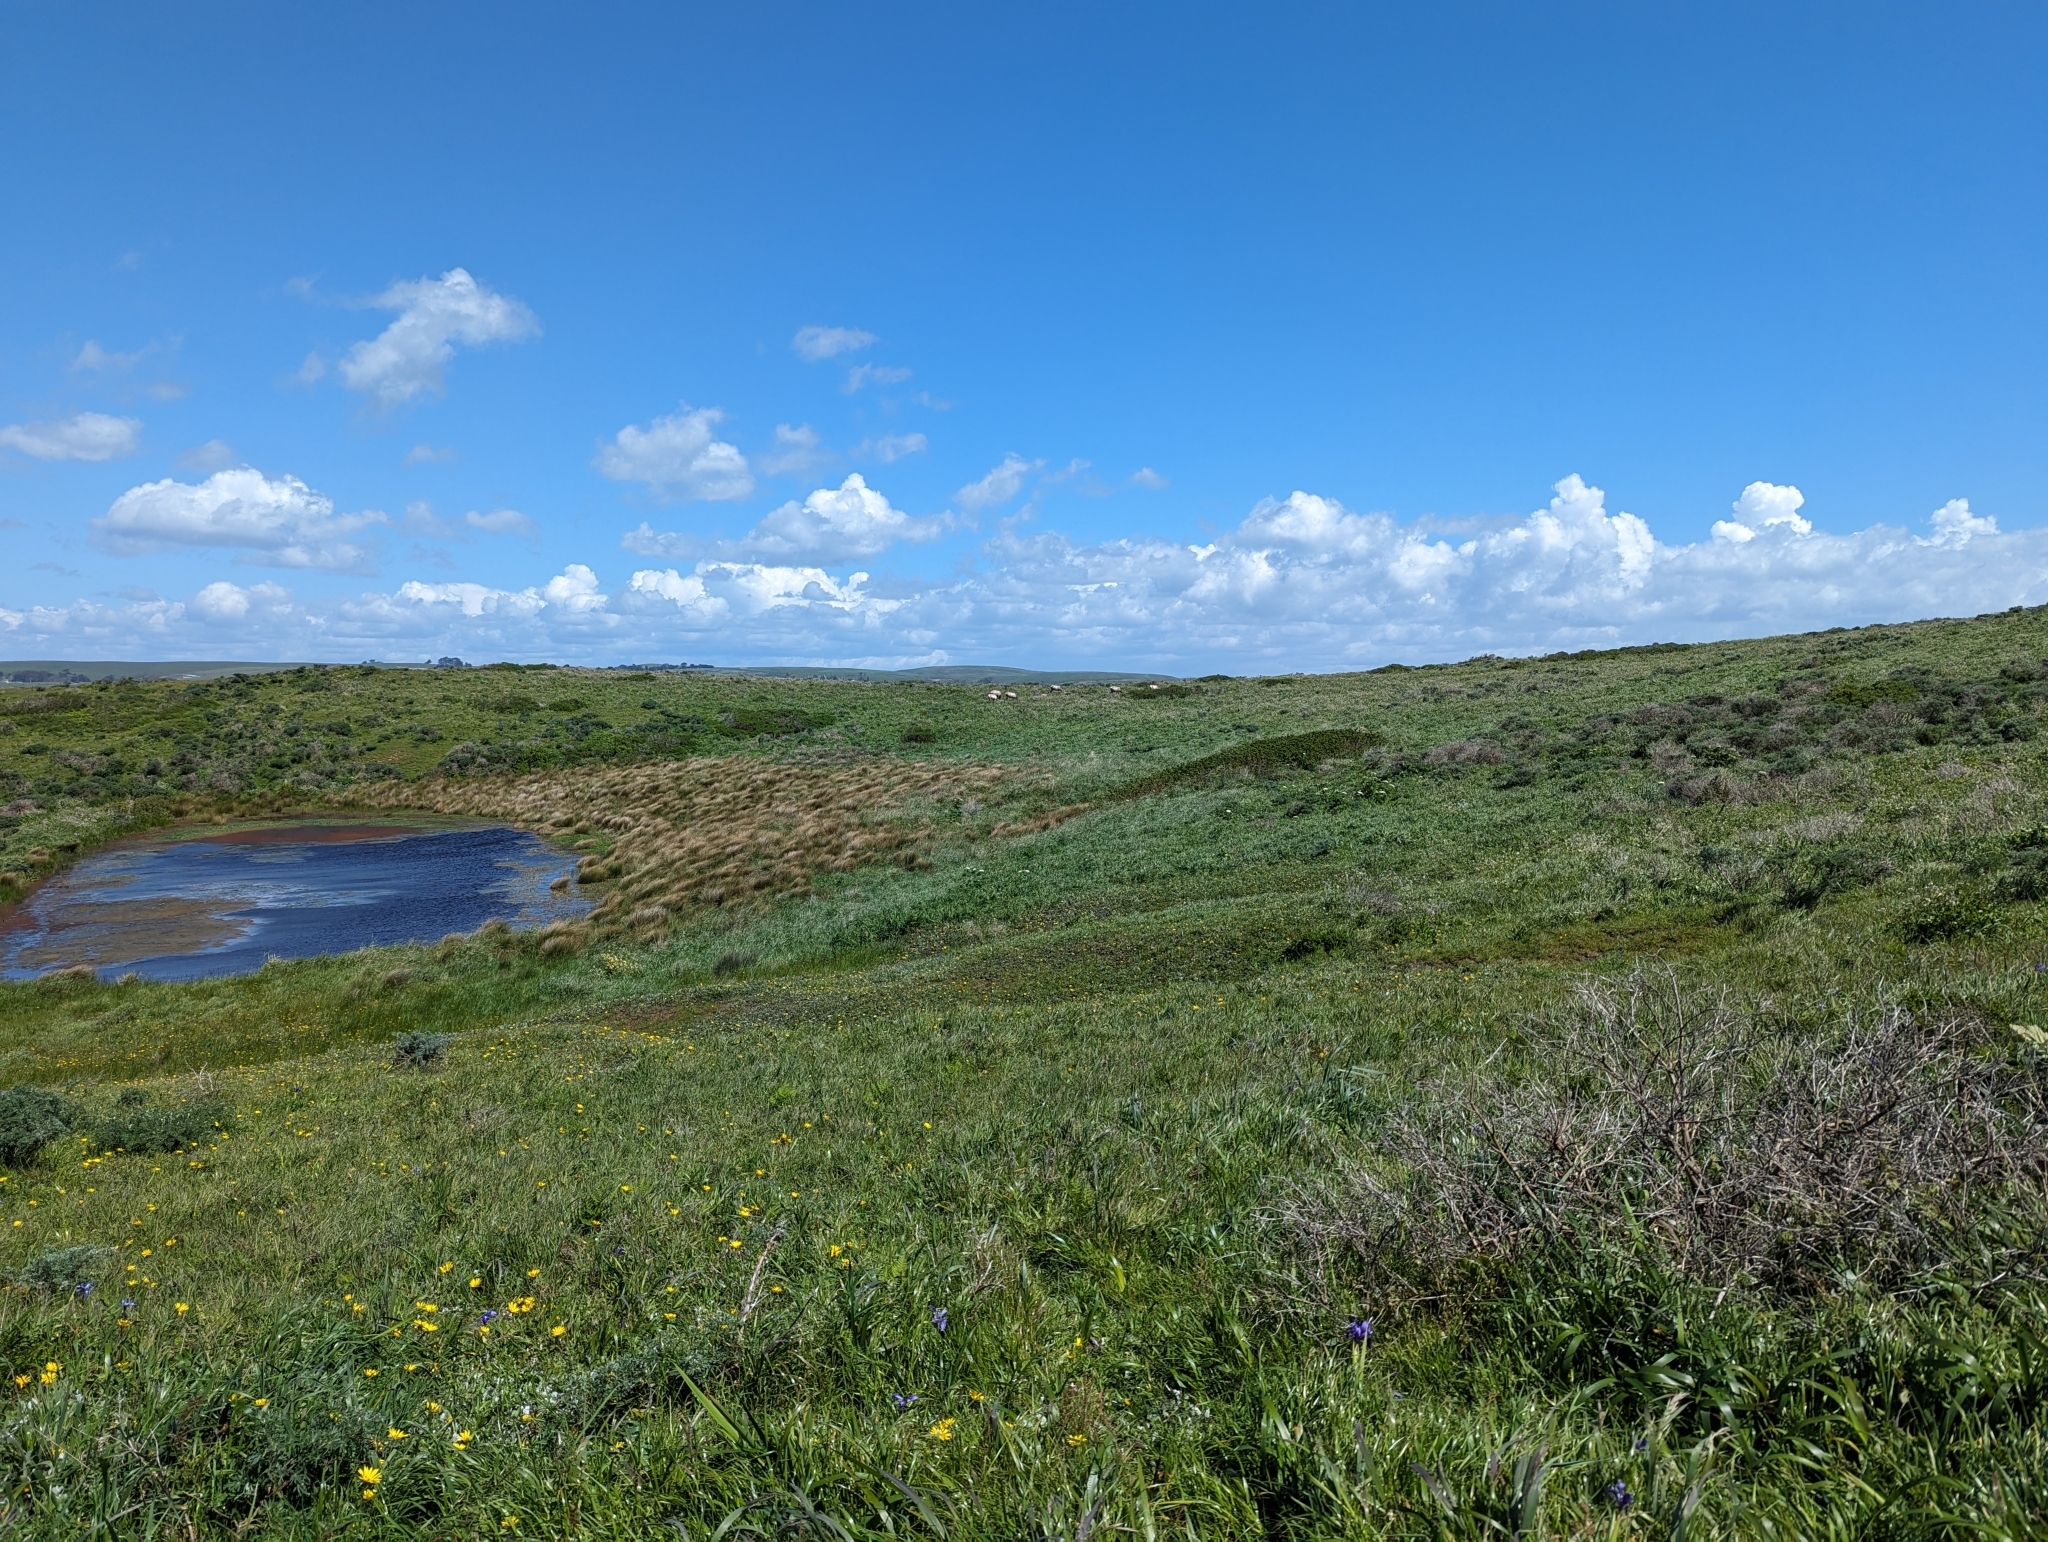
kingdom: Animalia
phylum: Chordata
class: Mammalia
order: Artiodactyla
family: Cervidae
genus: Cervus
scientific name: Cervus elaphus
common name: Red deer
